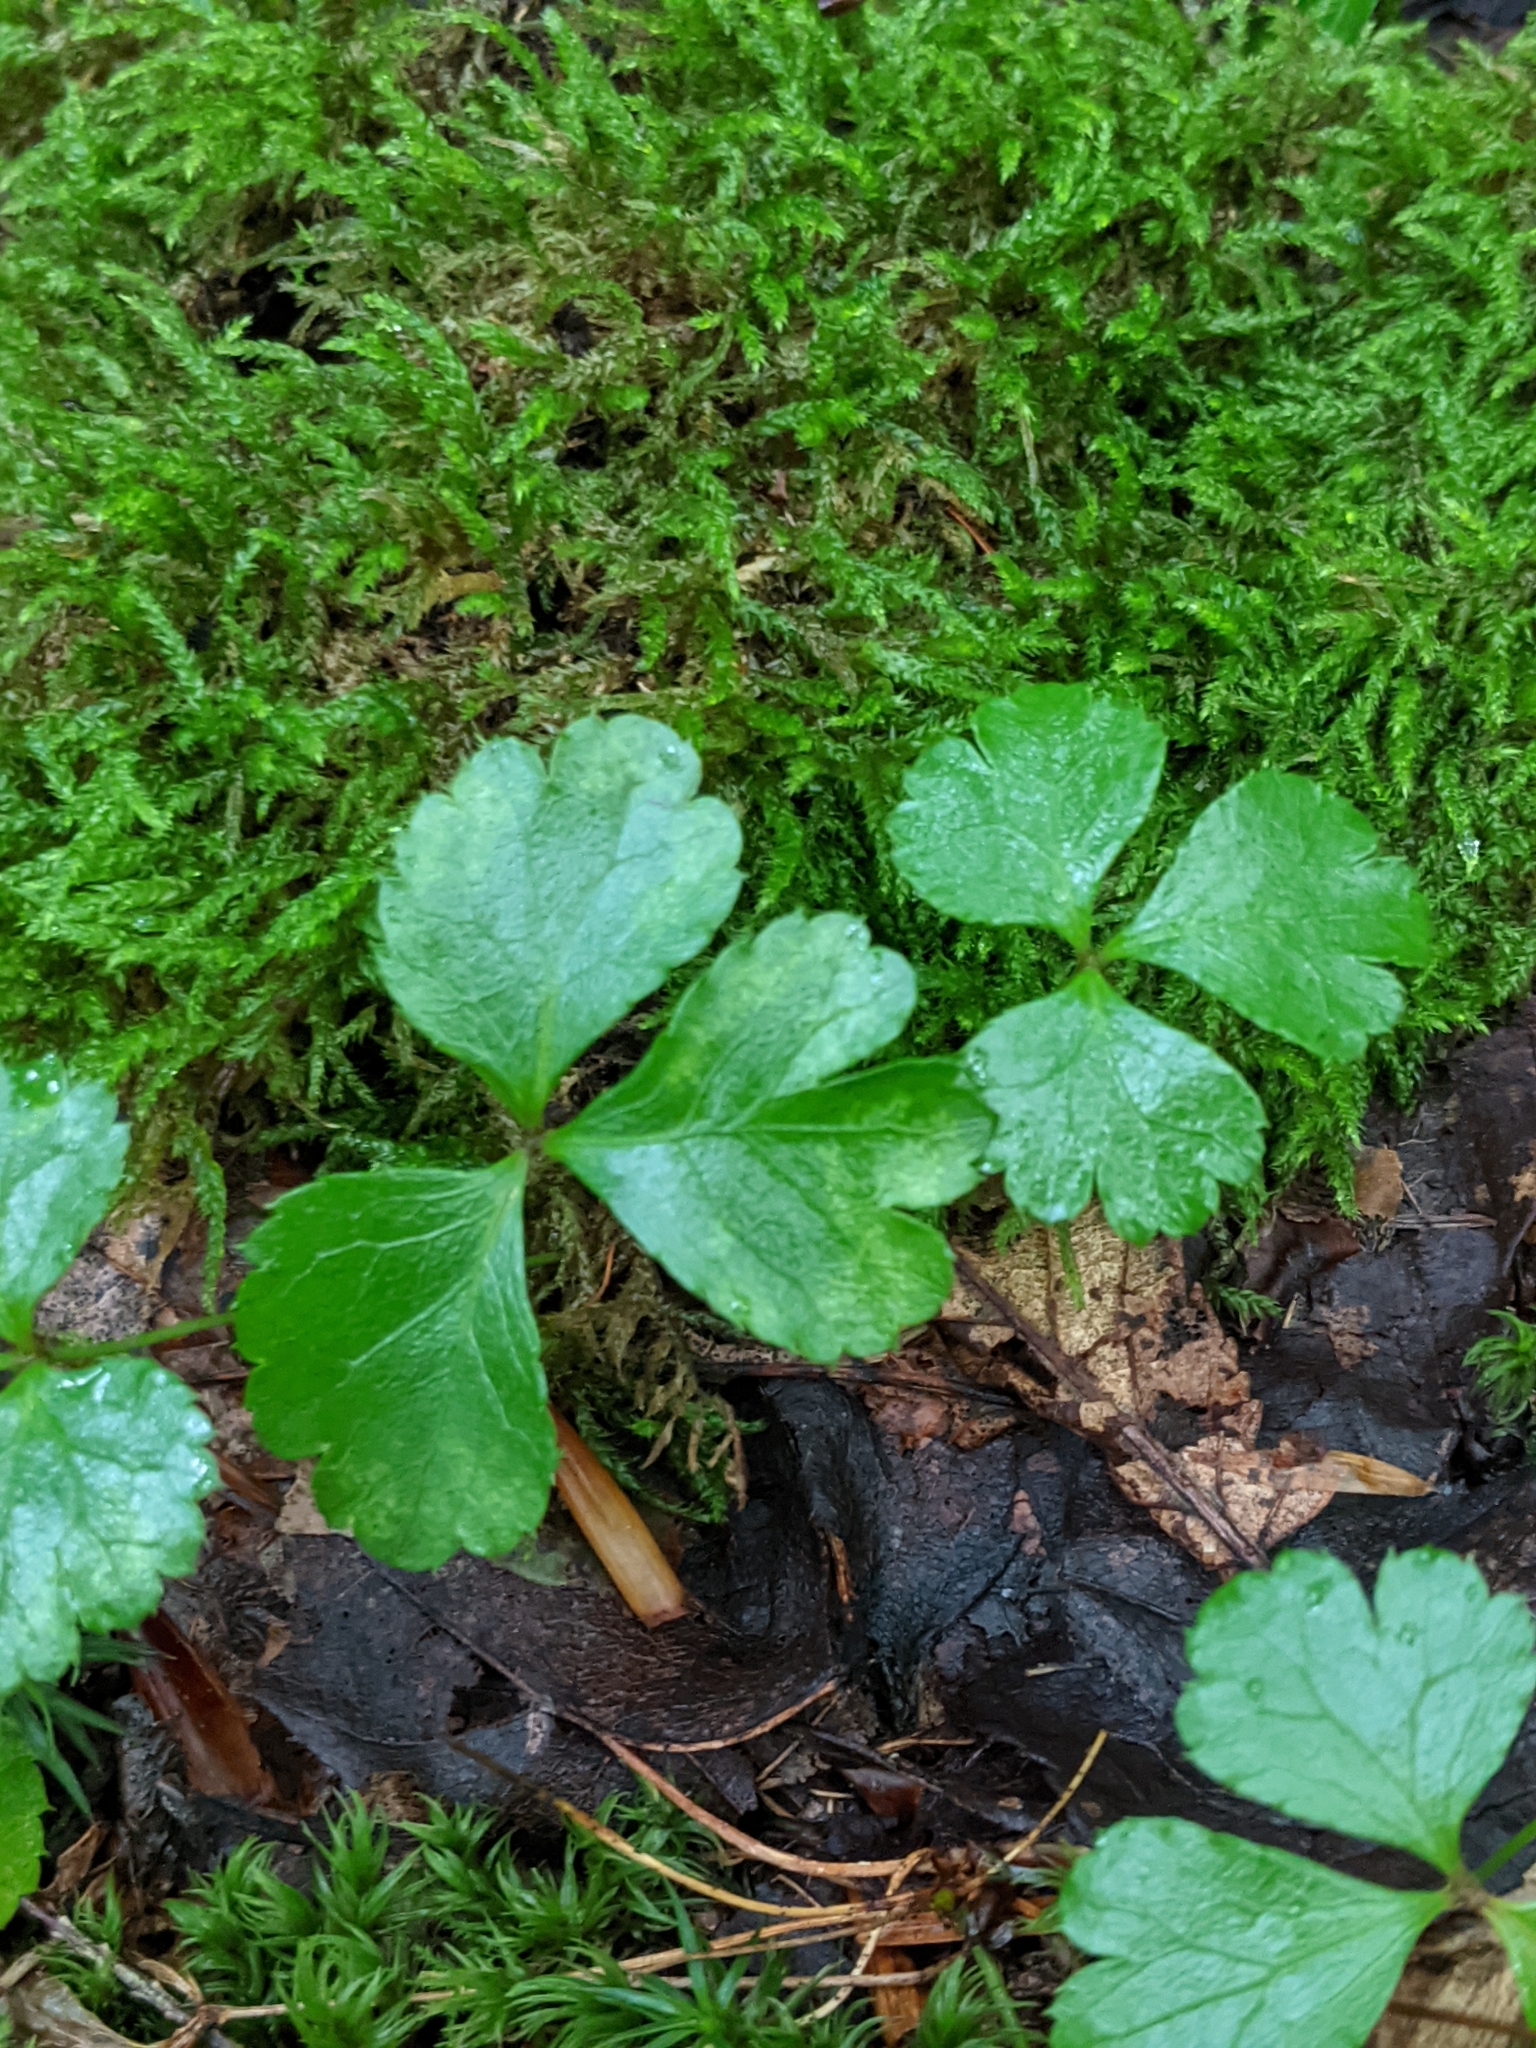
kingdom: Plantae
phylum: Tracheophyta
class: Magnoliopsida
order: Ranunculales
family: Ranunculaceae
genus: Coptis
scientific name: Coptis trifolia
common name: Canker-root
